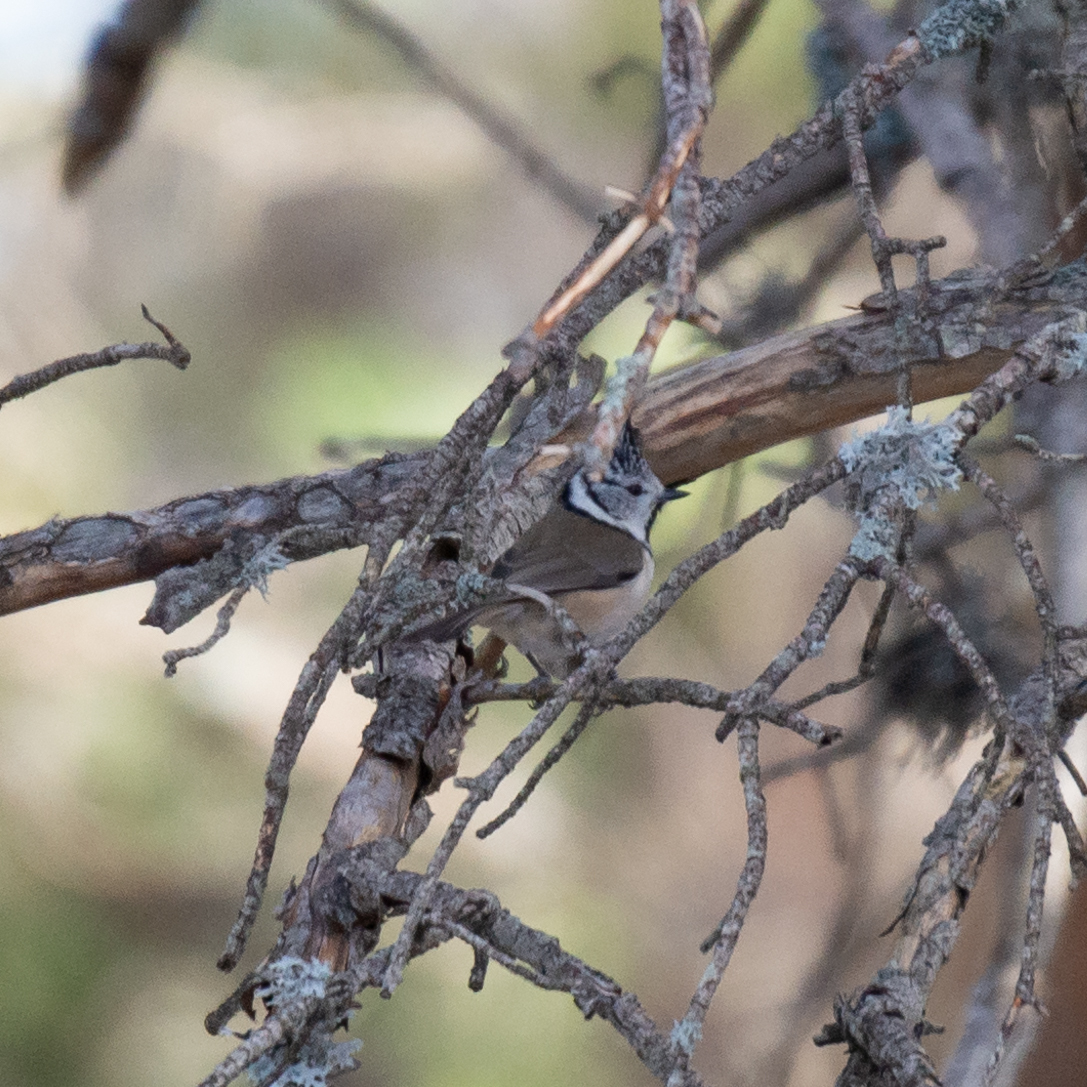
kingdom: Animalia
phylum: Chordata
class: Aves
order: Passeriformes
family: Paridae
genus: Lophophanes
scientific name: Lophophanes cristatus
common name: European crested tit
